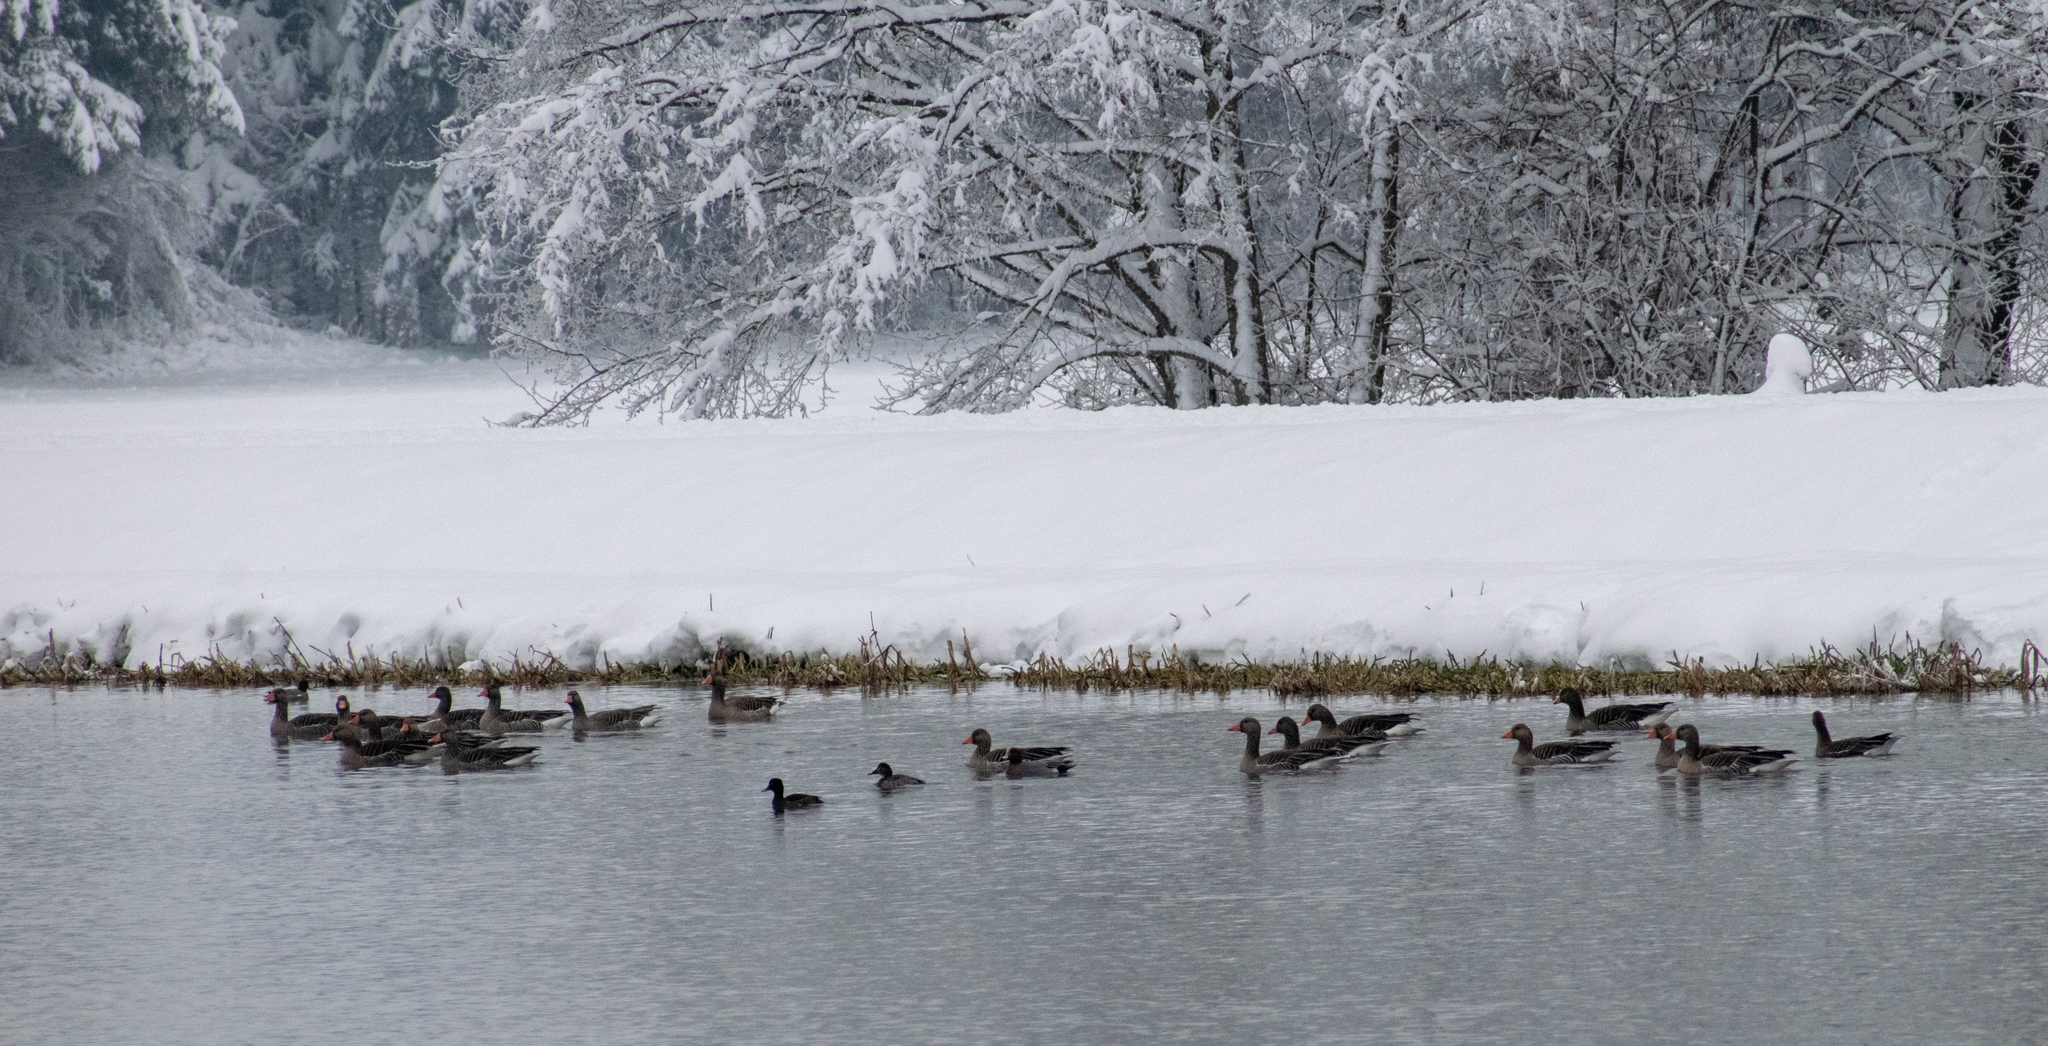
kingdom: Animalia
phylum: Chordata
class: Aves
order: Anseriformes
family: Anatidae
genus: Anser
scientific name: Anser anser
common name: Greylag goose
